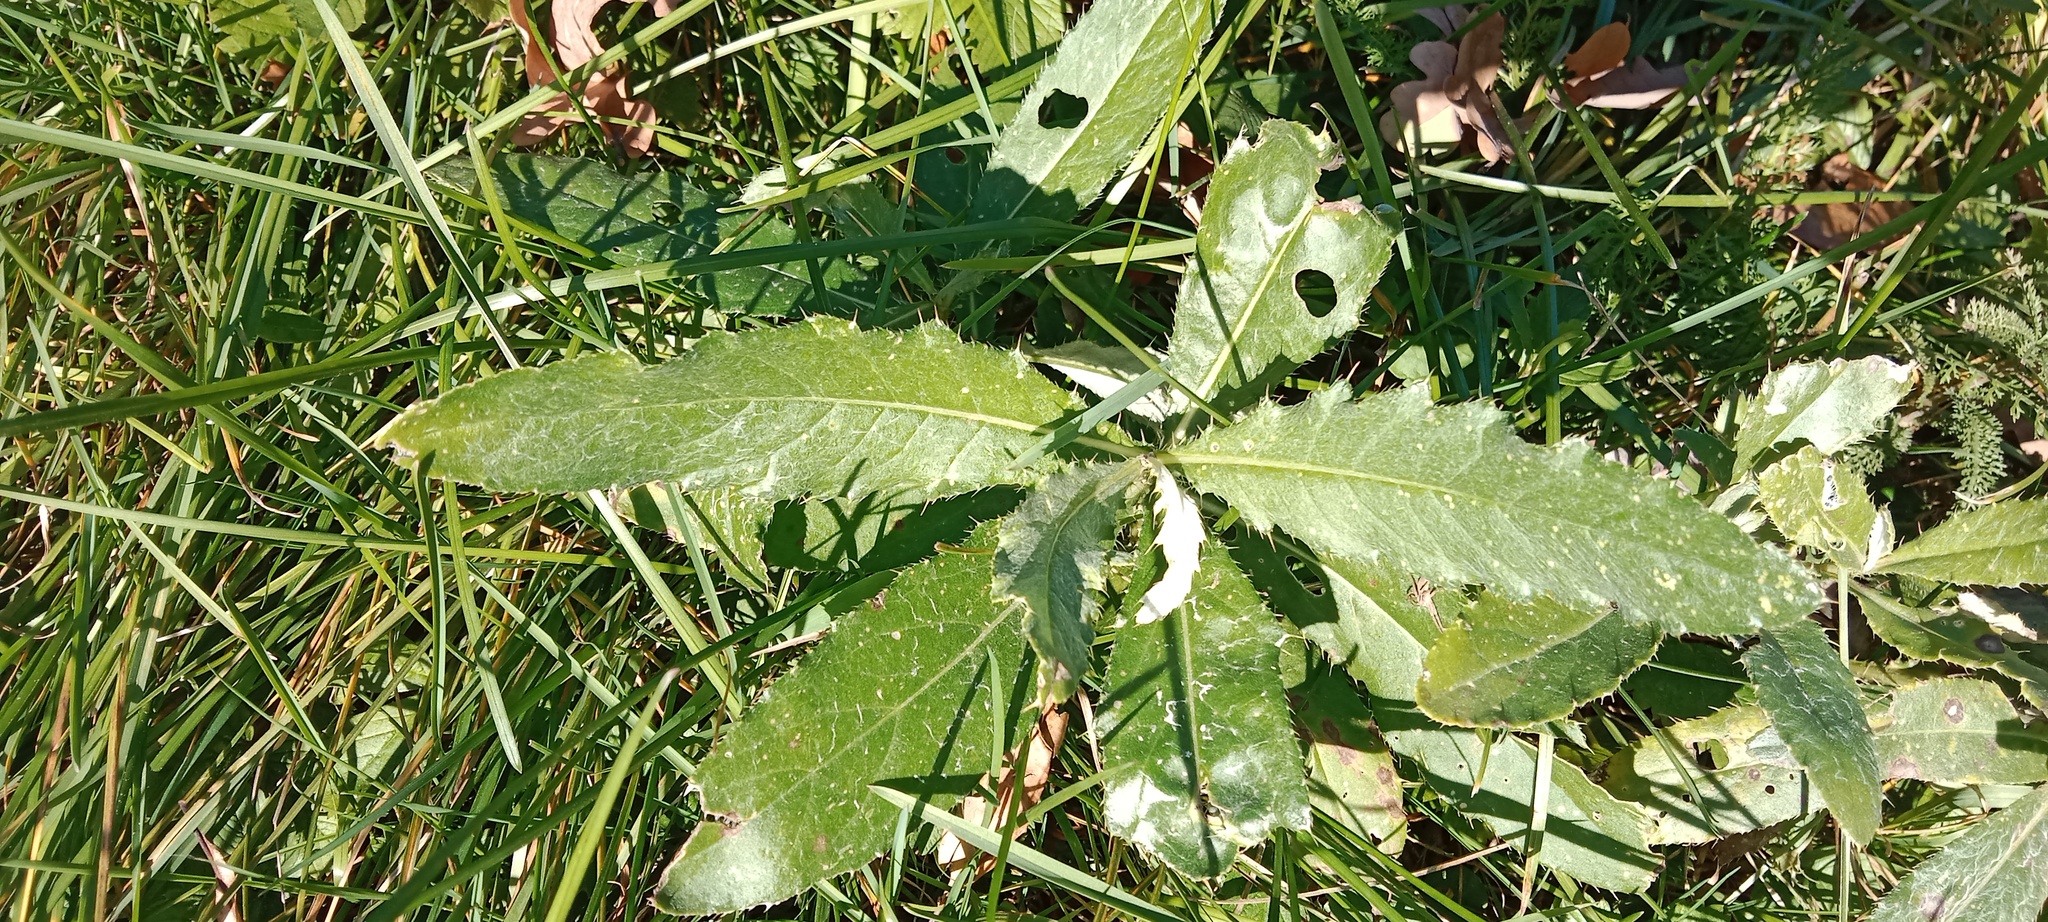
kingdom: Plantae
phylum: Tracheophyta
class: Magnoliopsida
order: Asterales
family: Asteraceae
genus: Cirsium
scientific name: Cirsium arvense
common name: Creeping thistle
